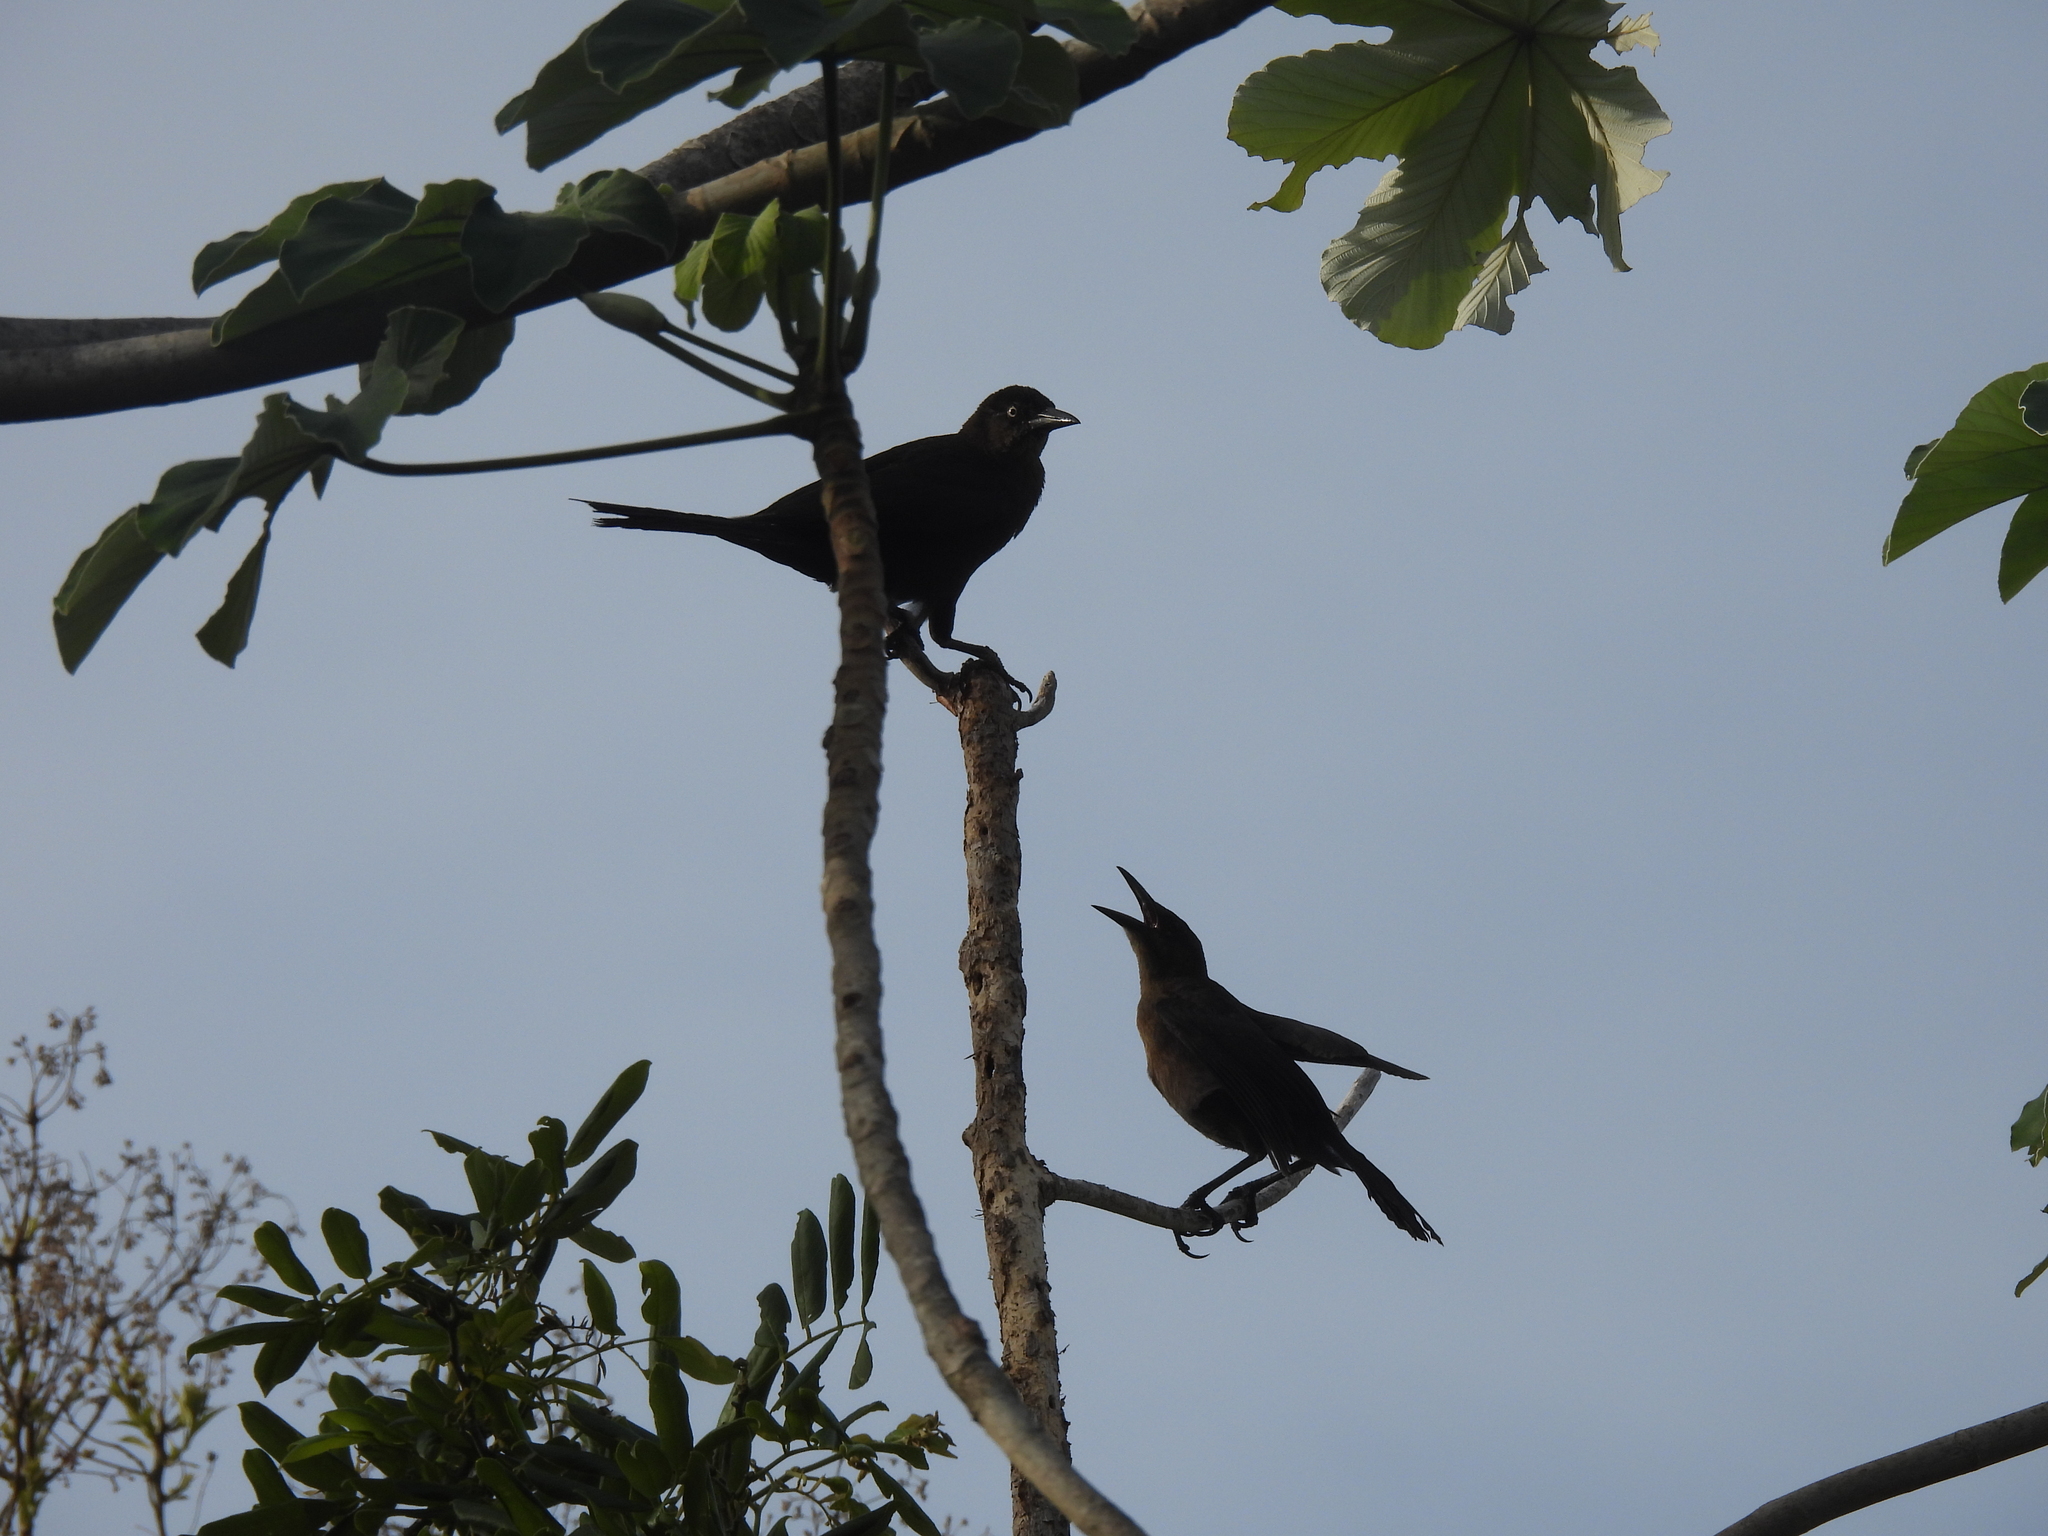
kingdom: Animalia
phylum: Chordata
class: Aves
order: Passeriformes
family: Icteridae
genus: Quiscalus
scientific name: Quiscalus mexicanus
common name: Great-tailed grackle
